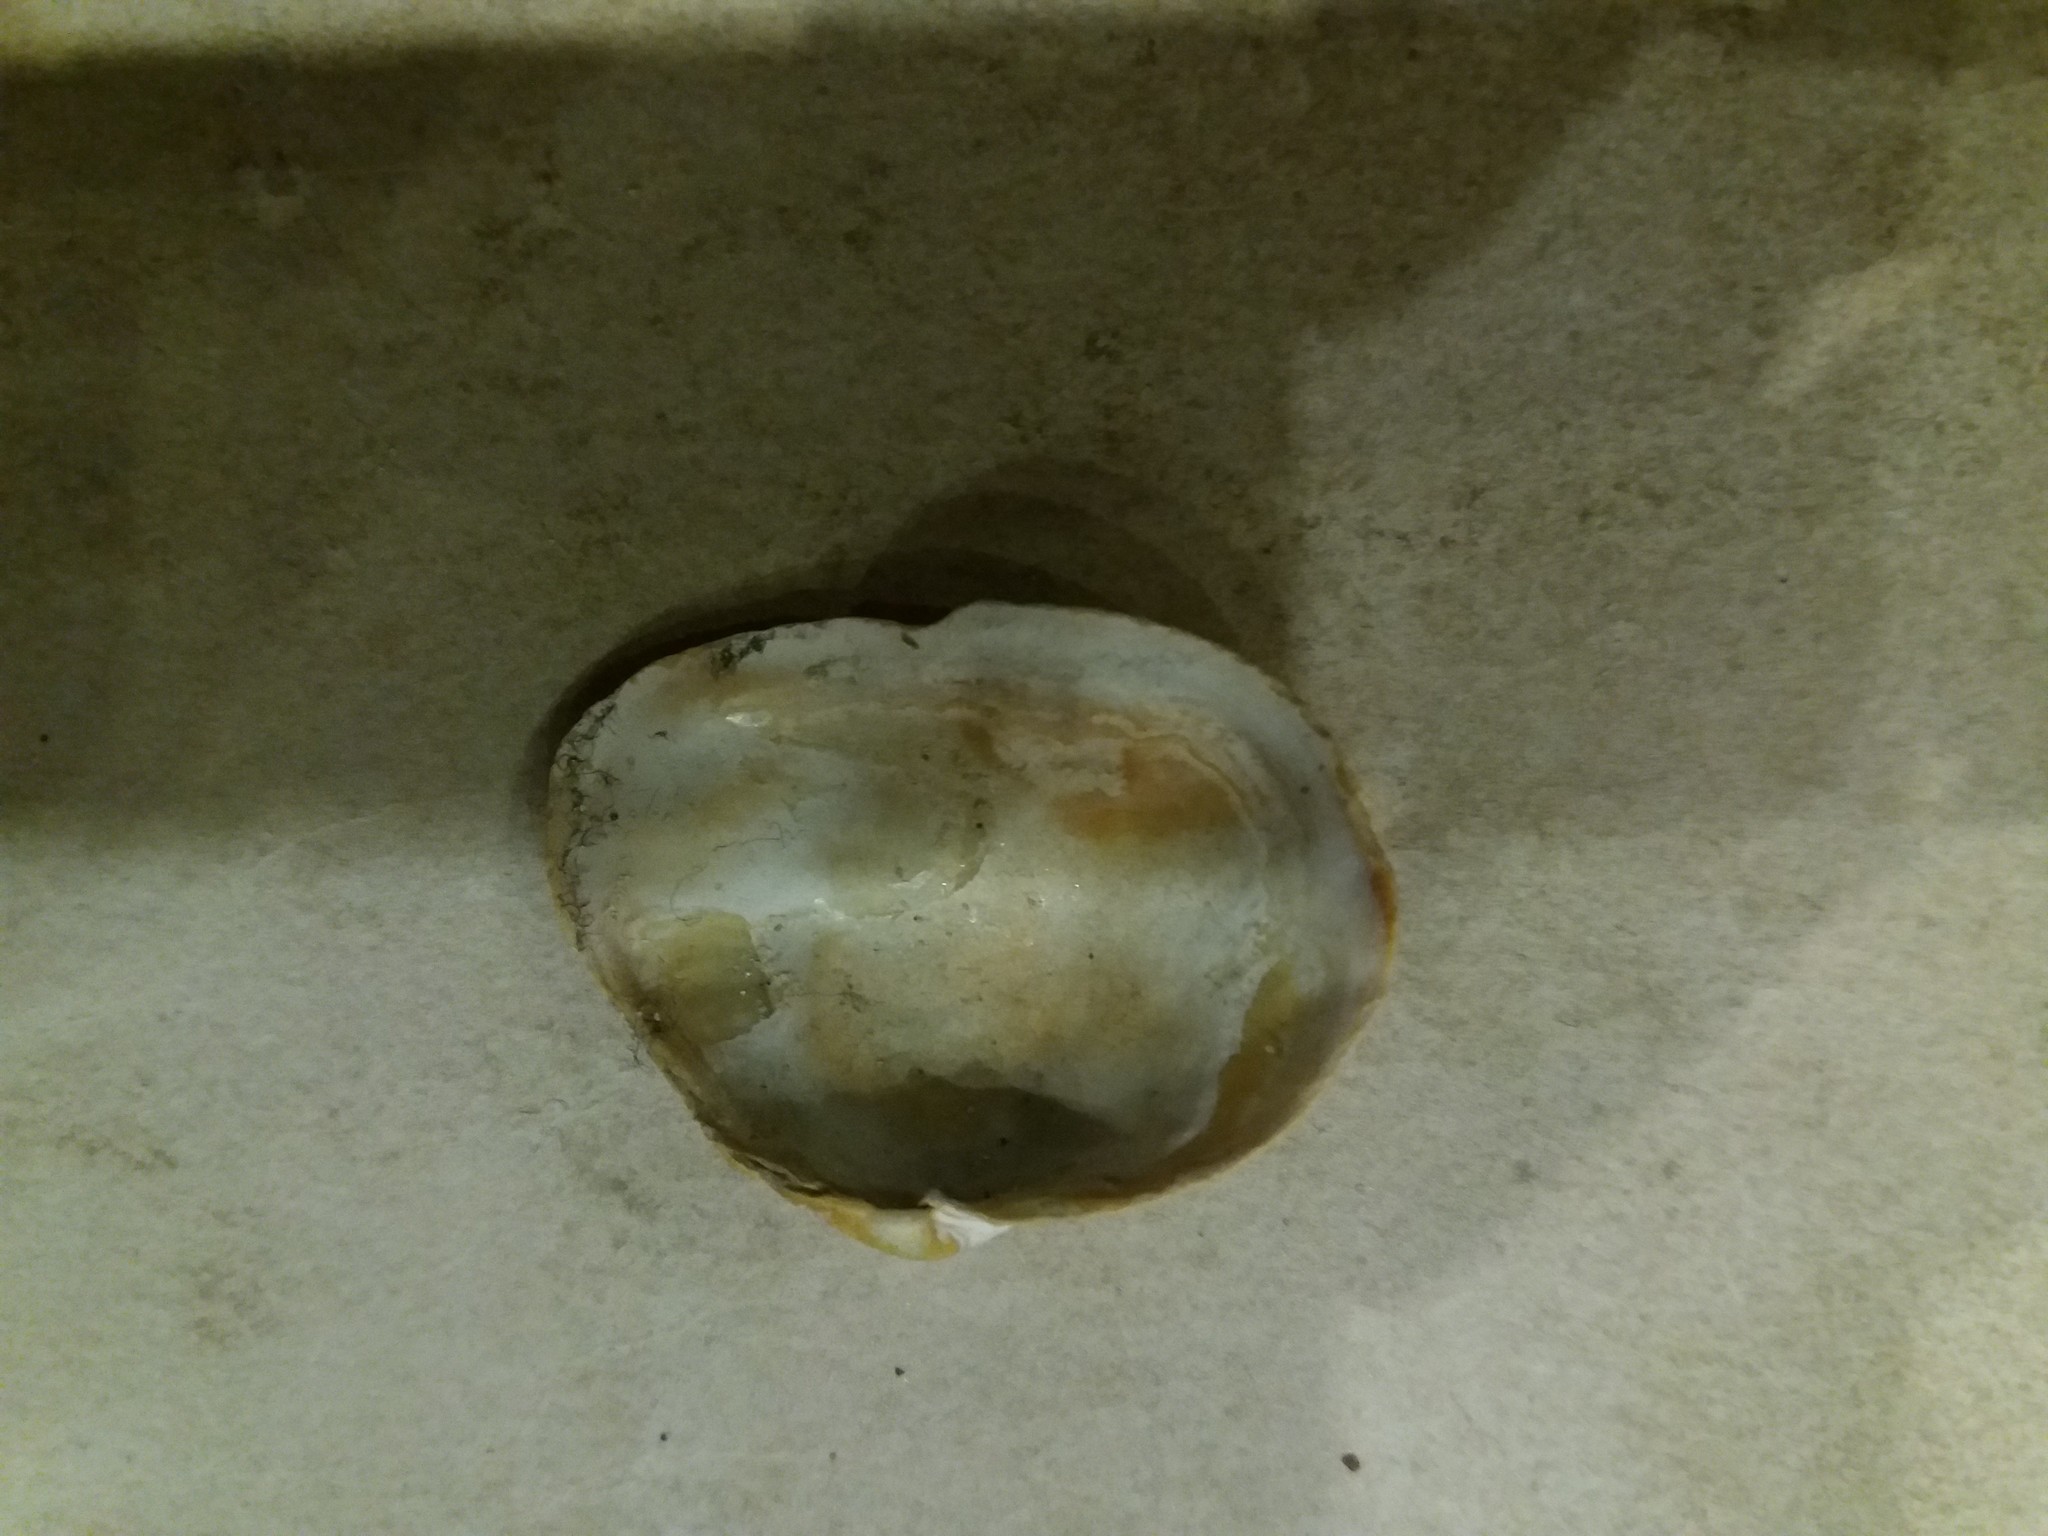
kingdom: Animalia
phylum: Mollusca
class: Bivalvia
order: Myida
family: Myidae
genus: Mya
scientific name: Mya arenaria
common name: Soft-shelled clam
